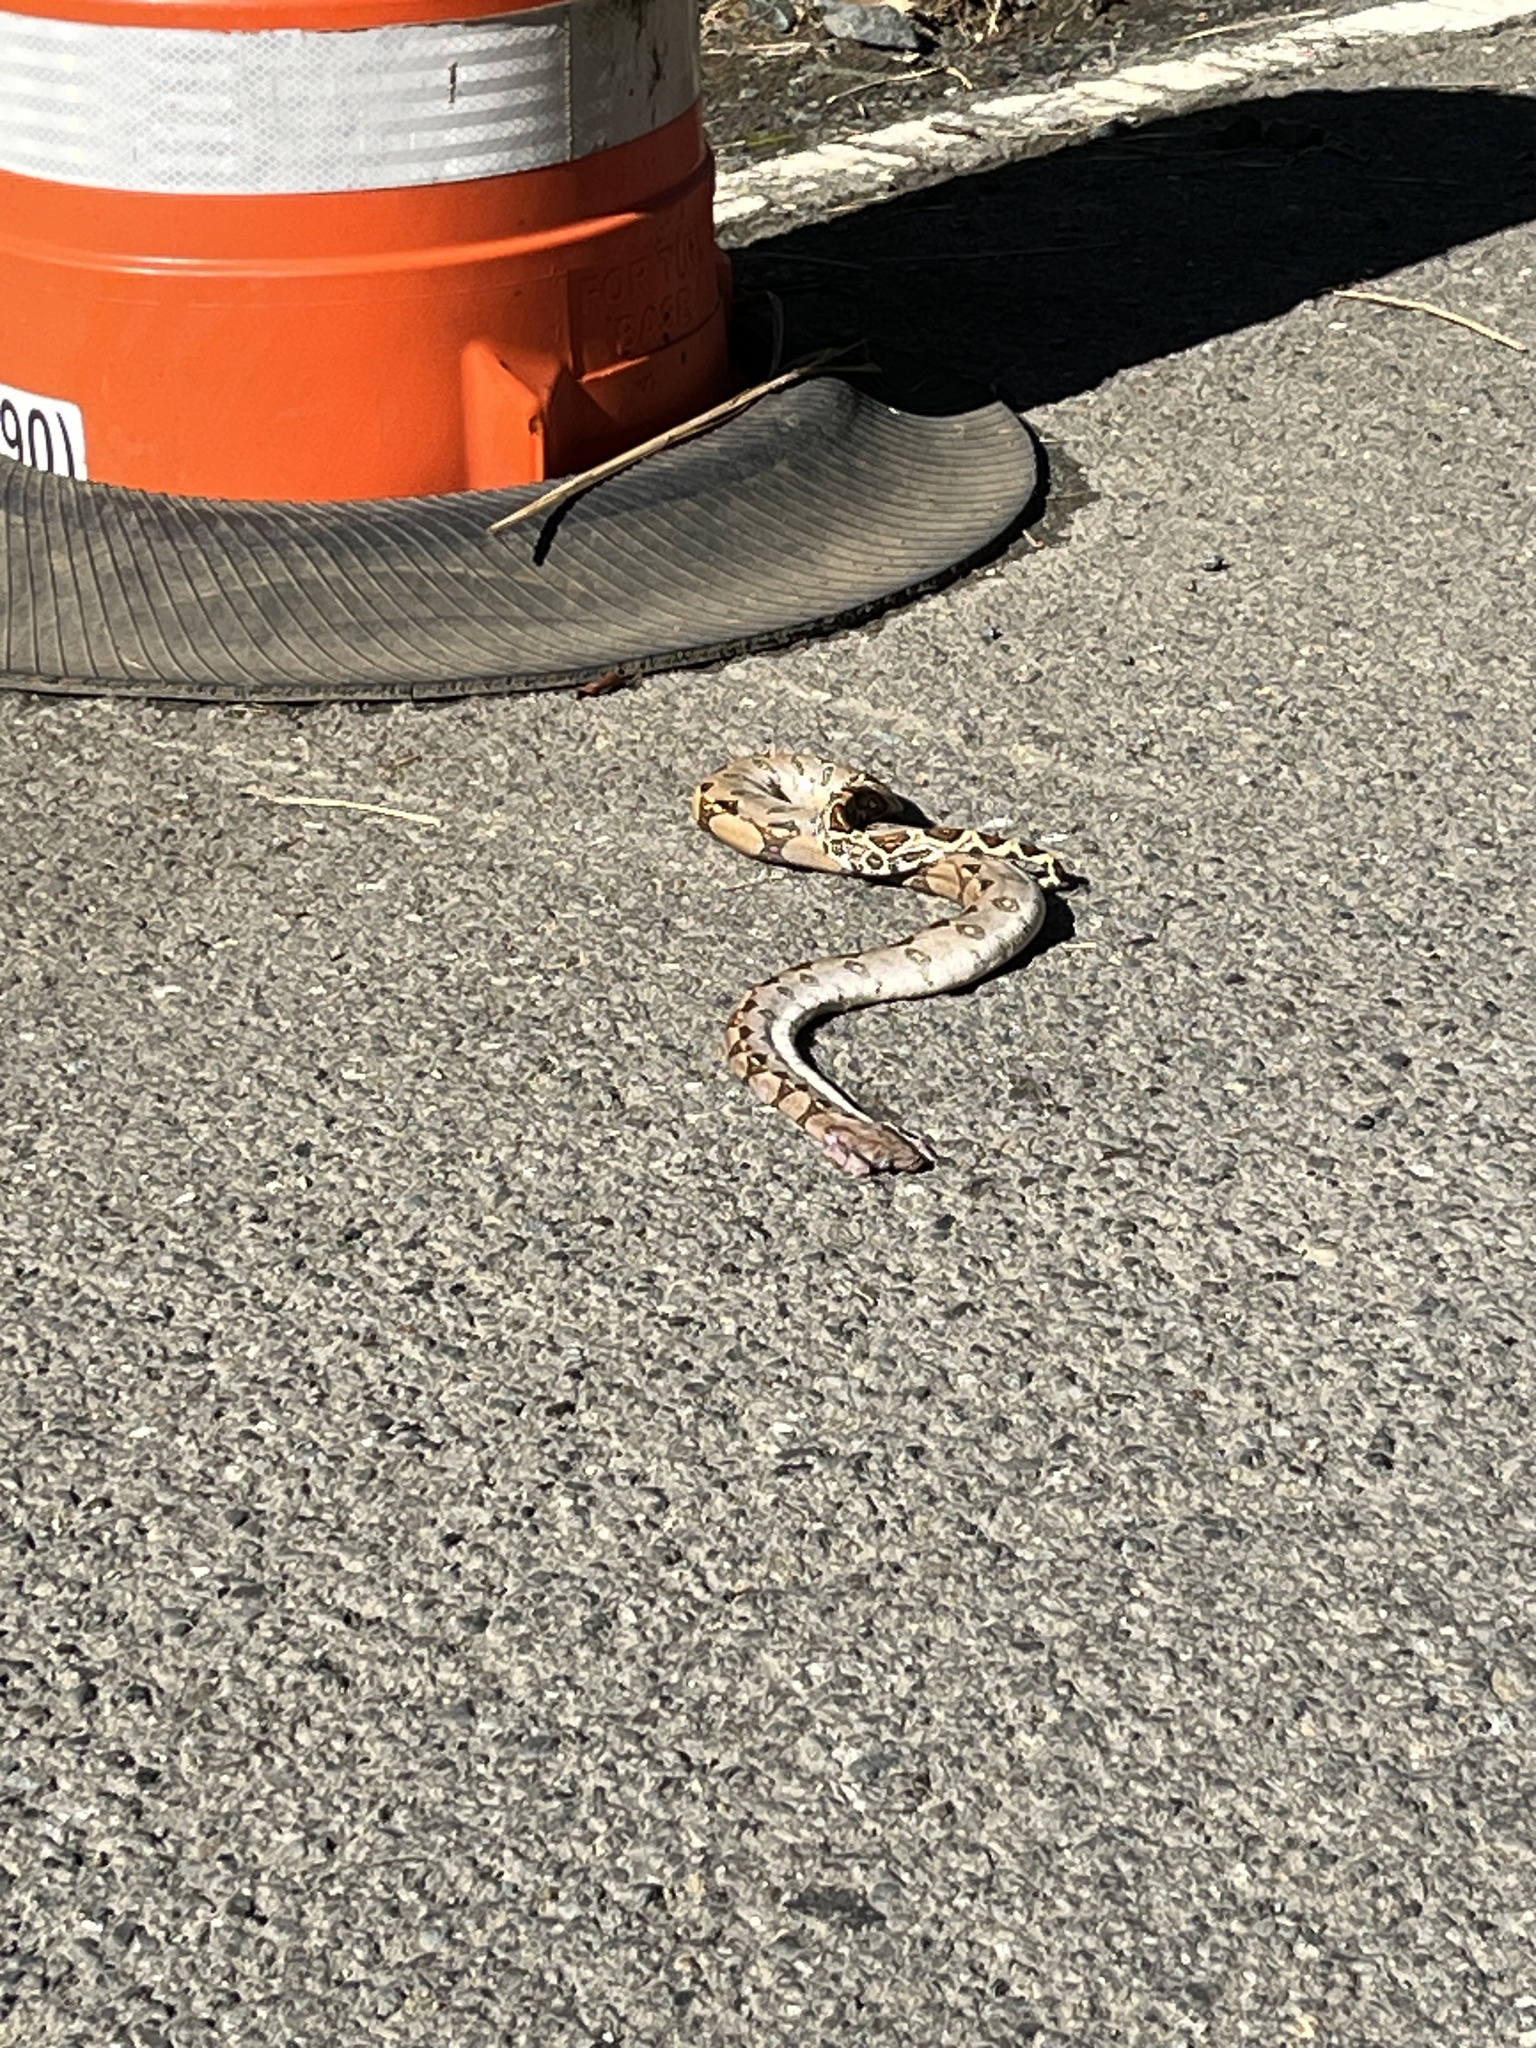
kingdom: Animalia
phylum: Chordata
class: Squamata
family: Boidae
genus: Boa
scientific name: Boa constrictor
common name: Boa constrictor
